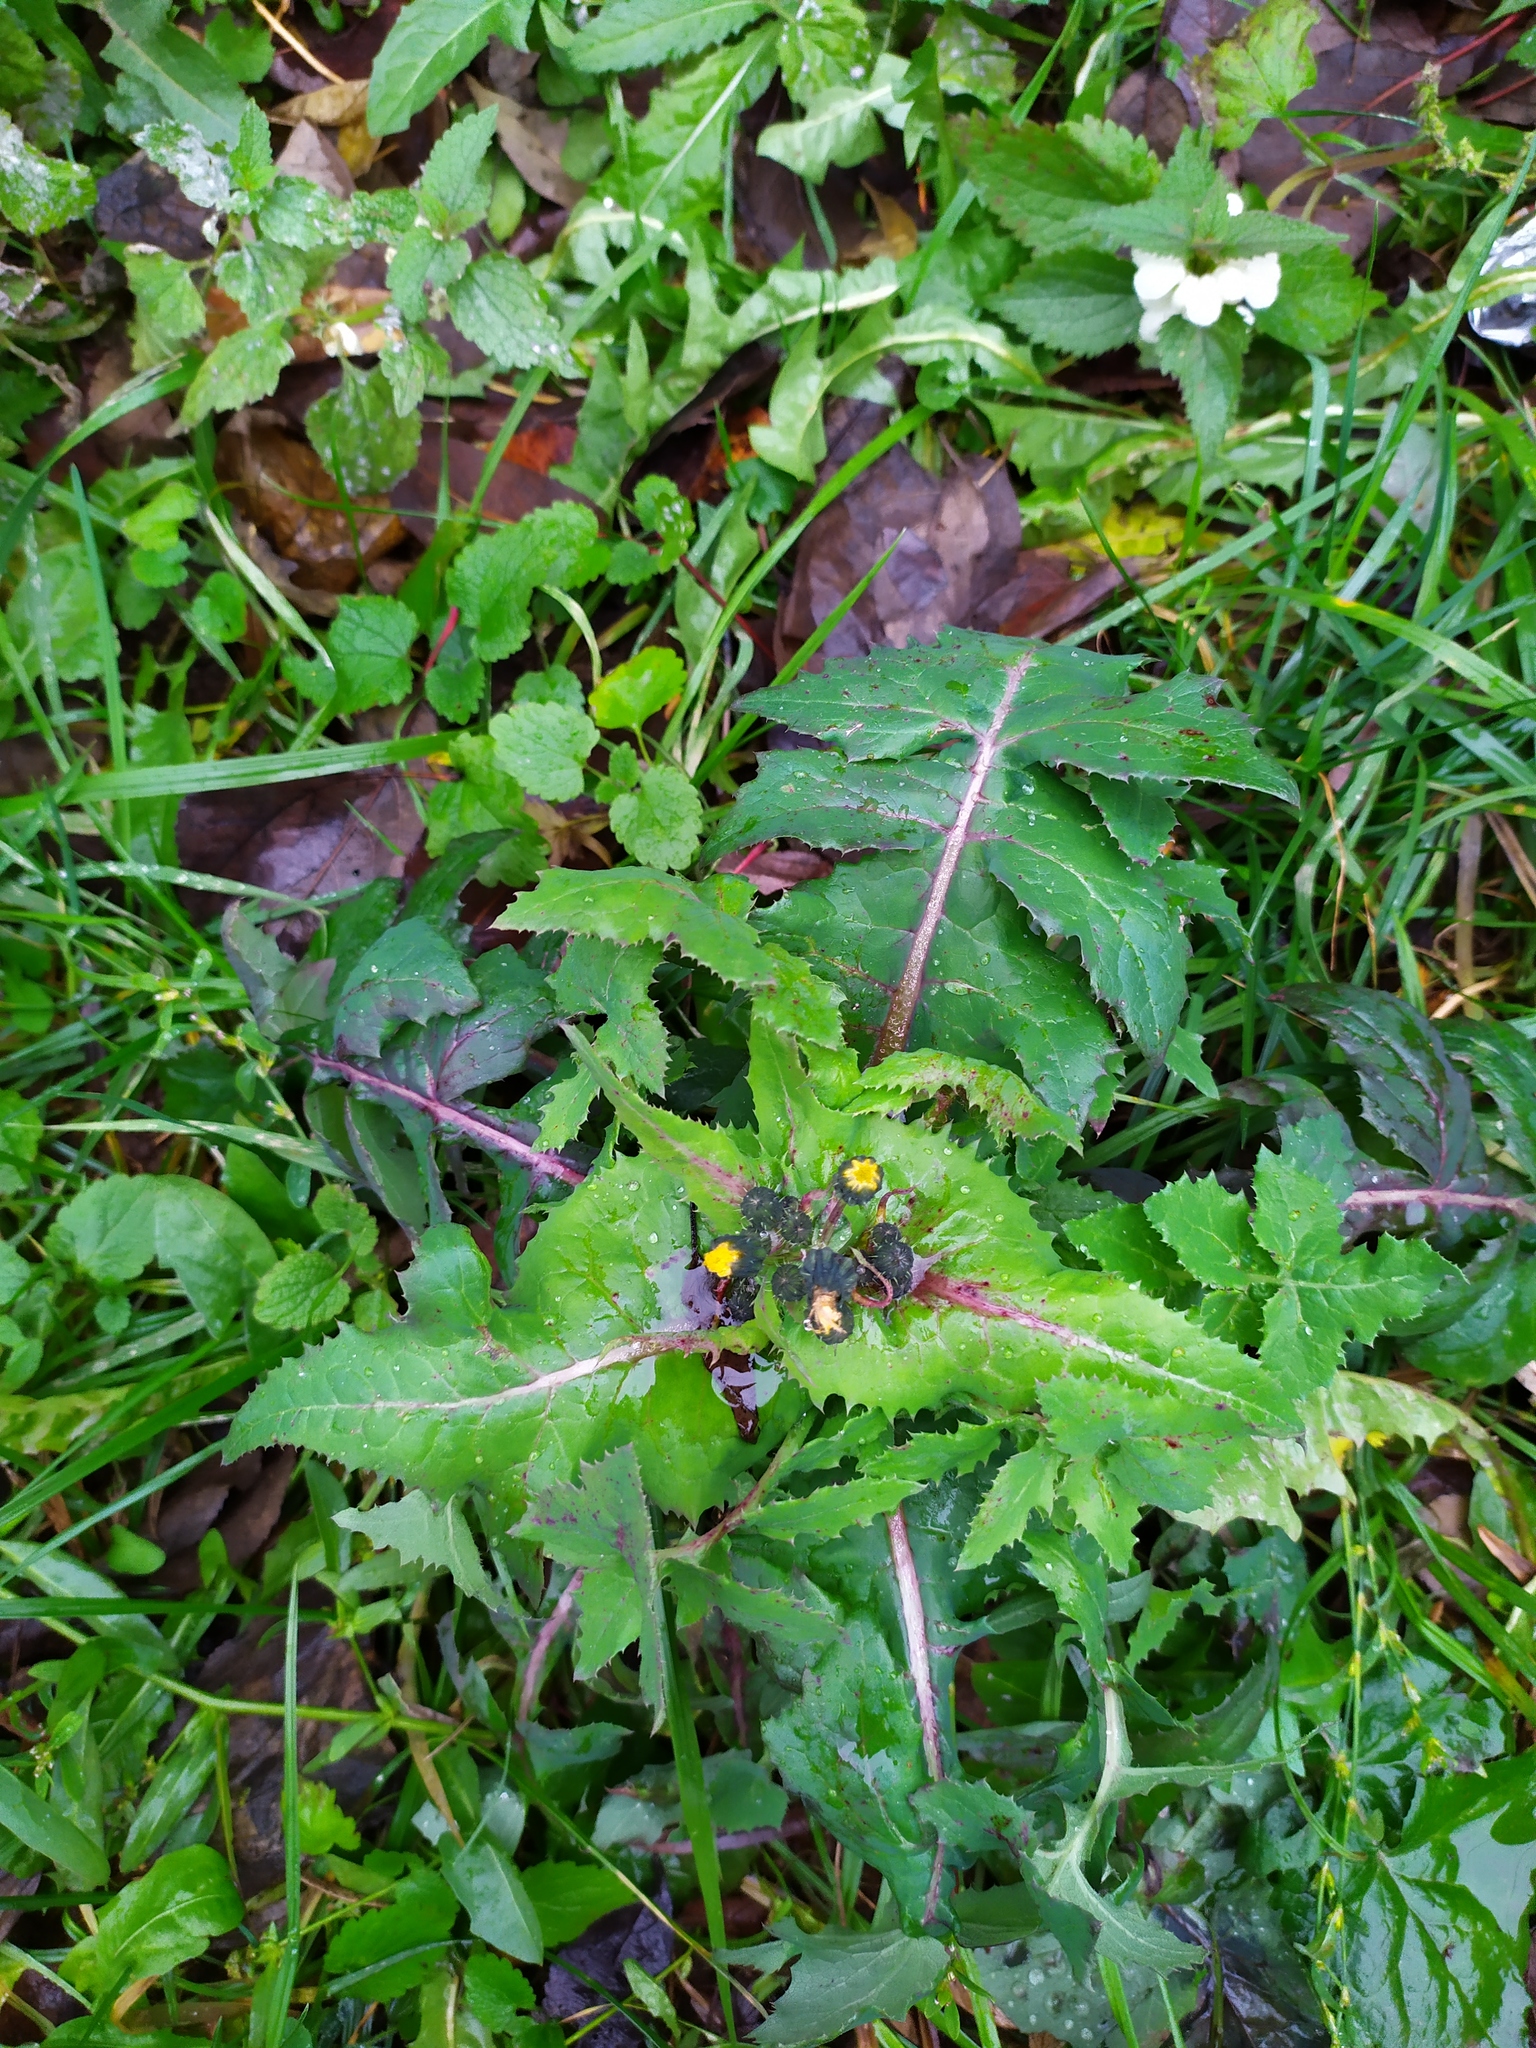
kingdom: Plantae
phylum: Tracheophyta
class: Magnoliopsida
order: Asterales
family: Asteraceae
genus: Sonchus
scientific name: Sonchus oleraceus
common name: Common sowthistle
